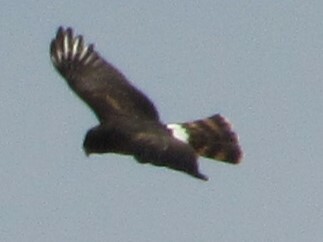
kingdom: Animalia
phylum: Chordata
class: Aves
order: Accipitriformes
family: Accipitridae
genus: Circus
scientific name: Circus cyaneus
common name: Hen harrier
